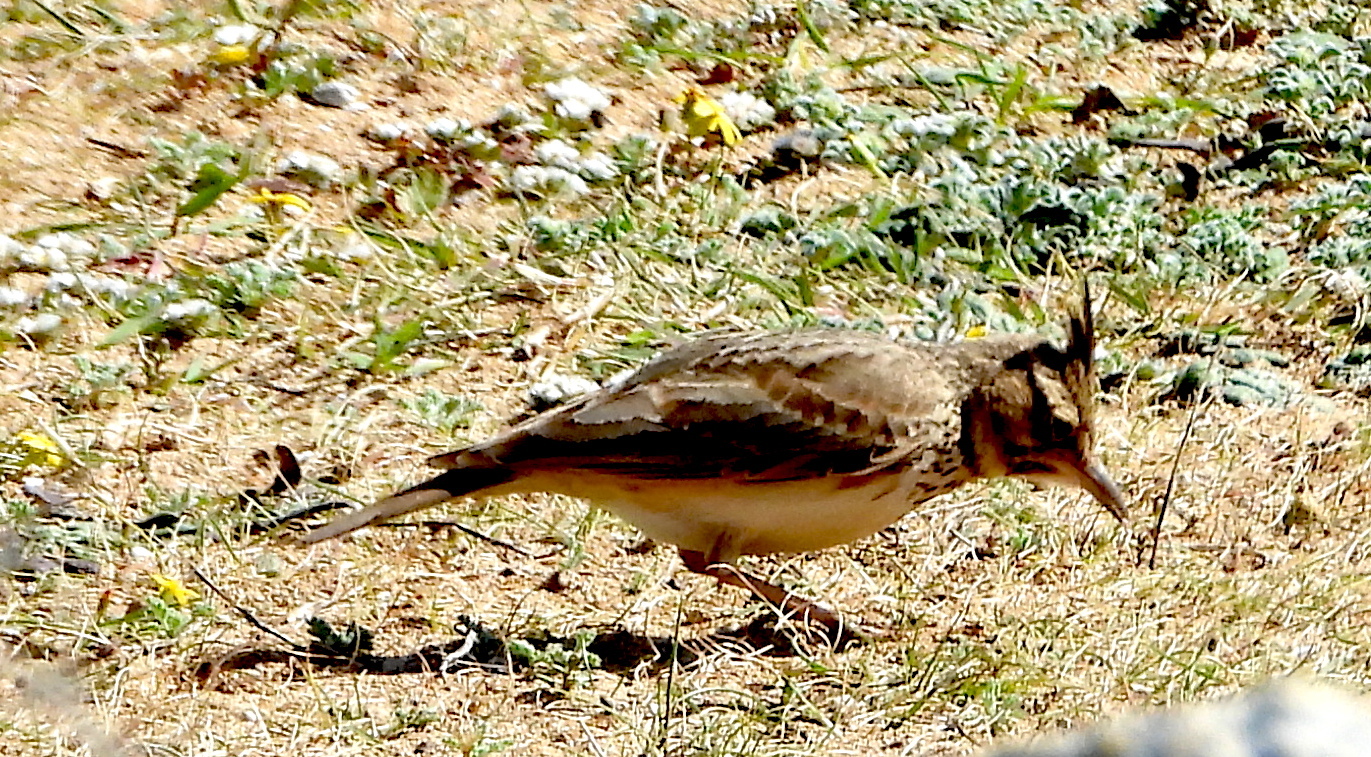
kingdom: Animalia
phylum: Chordata
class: Aves
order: Passeriformes
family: Alaudidae
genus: Galerida
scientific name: Galerida cristata
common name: Crested lark
